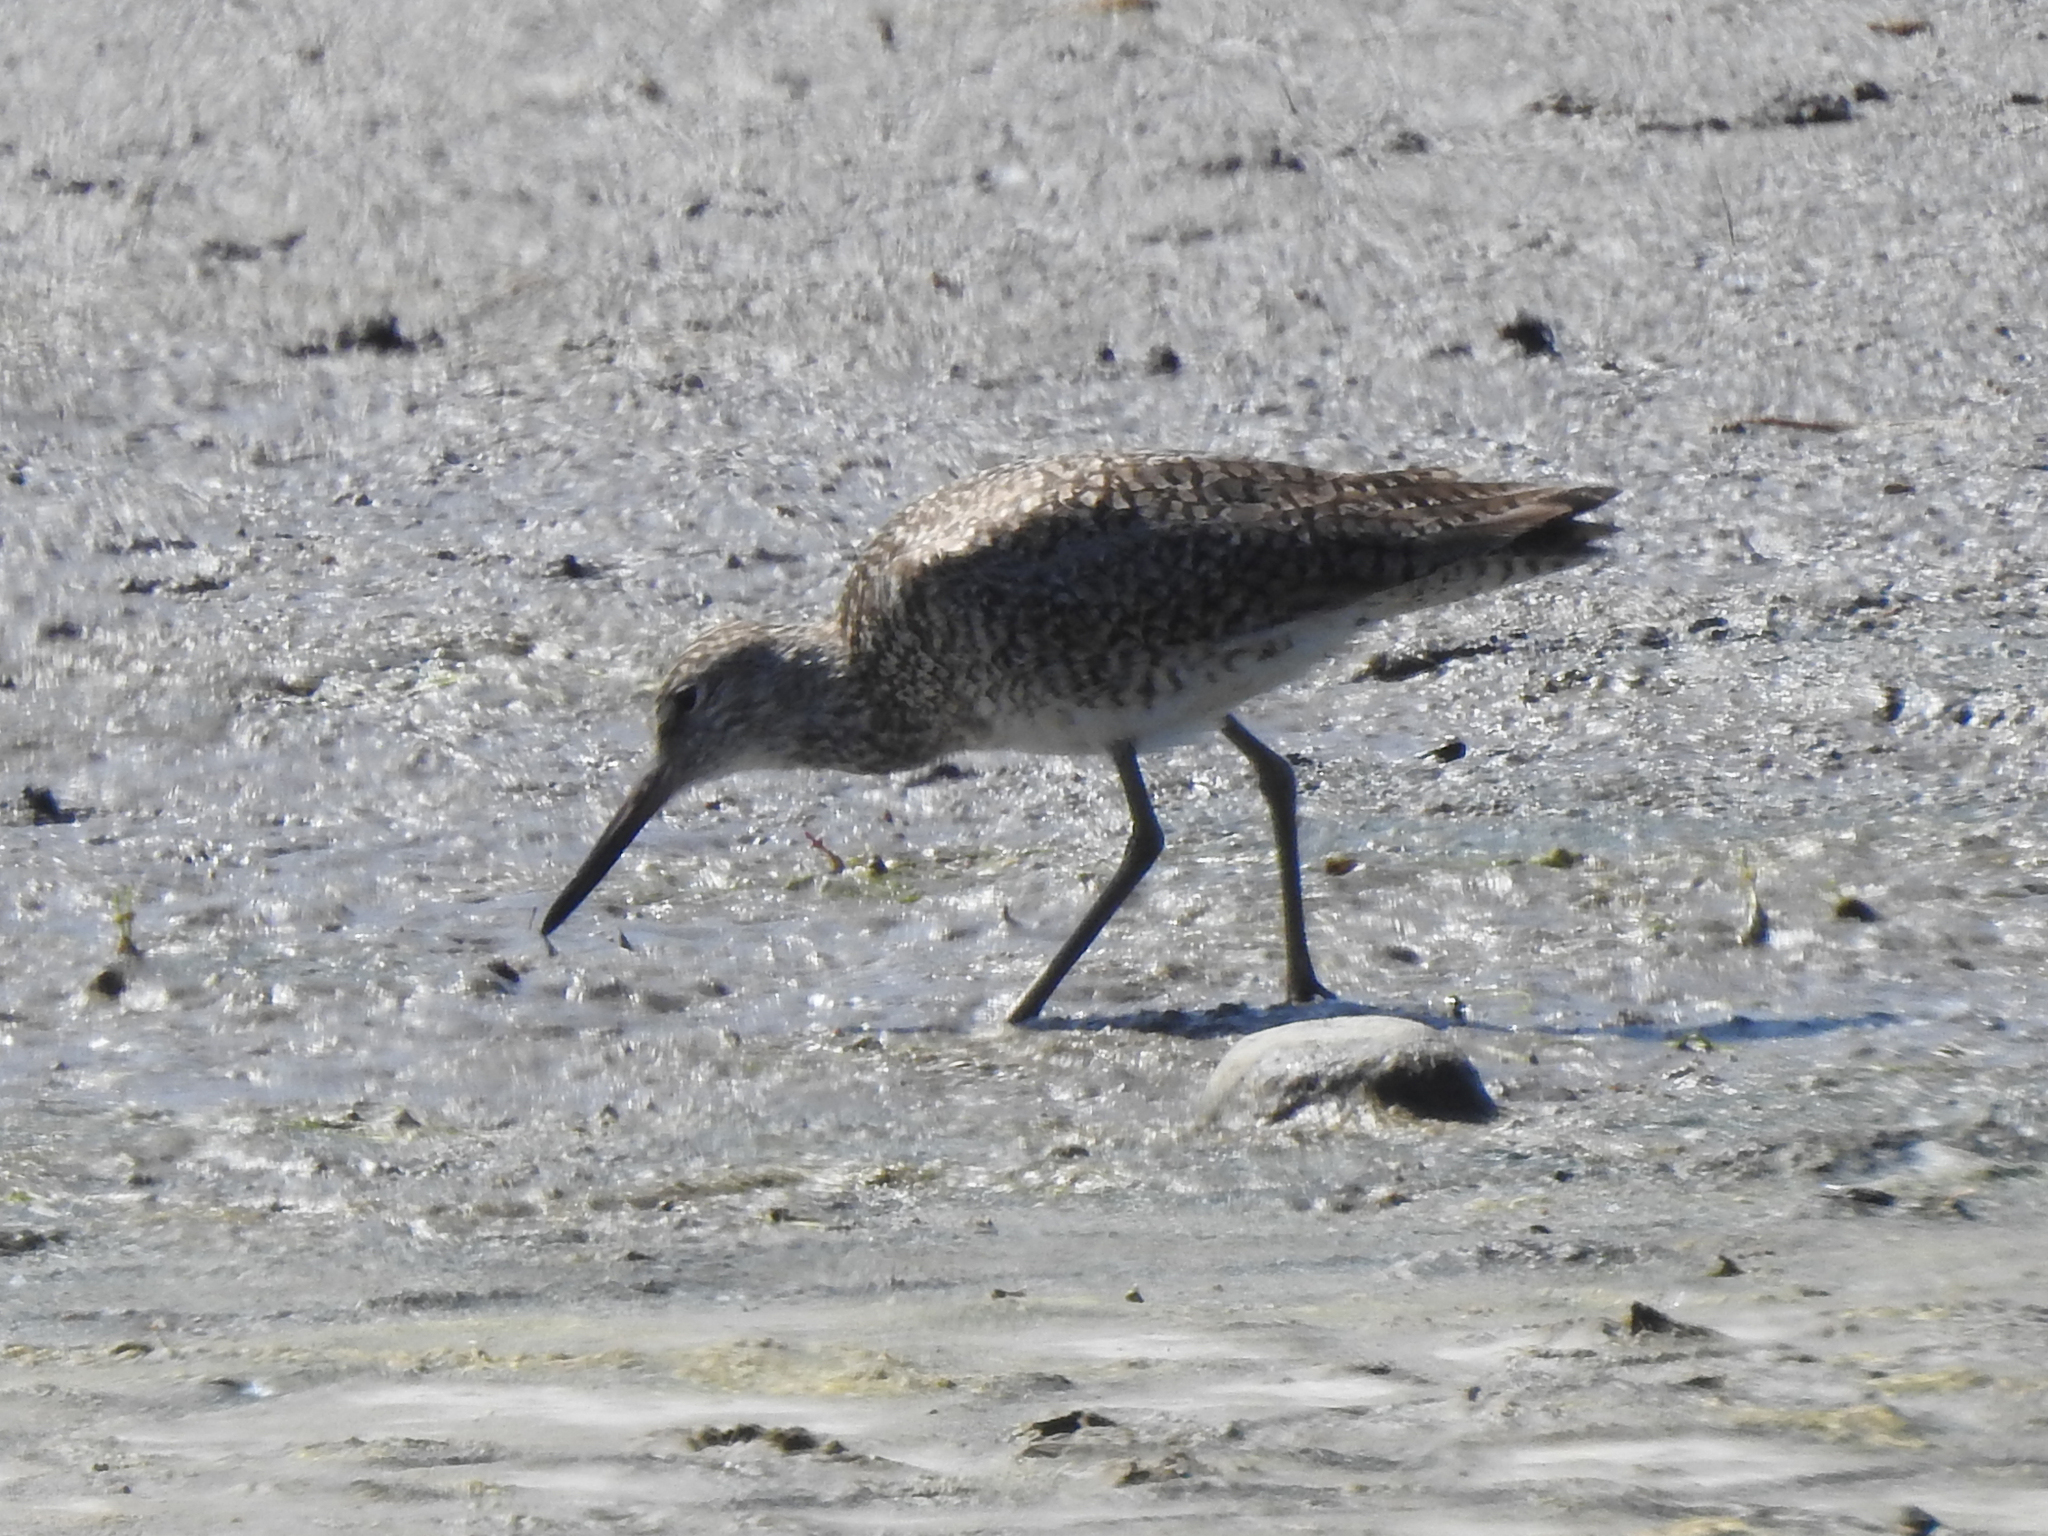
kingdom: Animalia
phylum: Chordata
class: Aves
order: Charadriiformes
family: Scolopacidae
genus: Tringa
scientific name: Tringa semipalmata
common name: Willet
